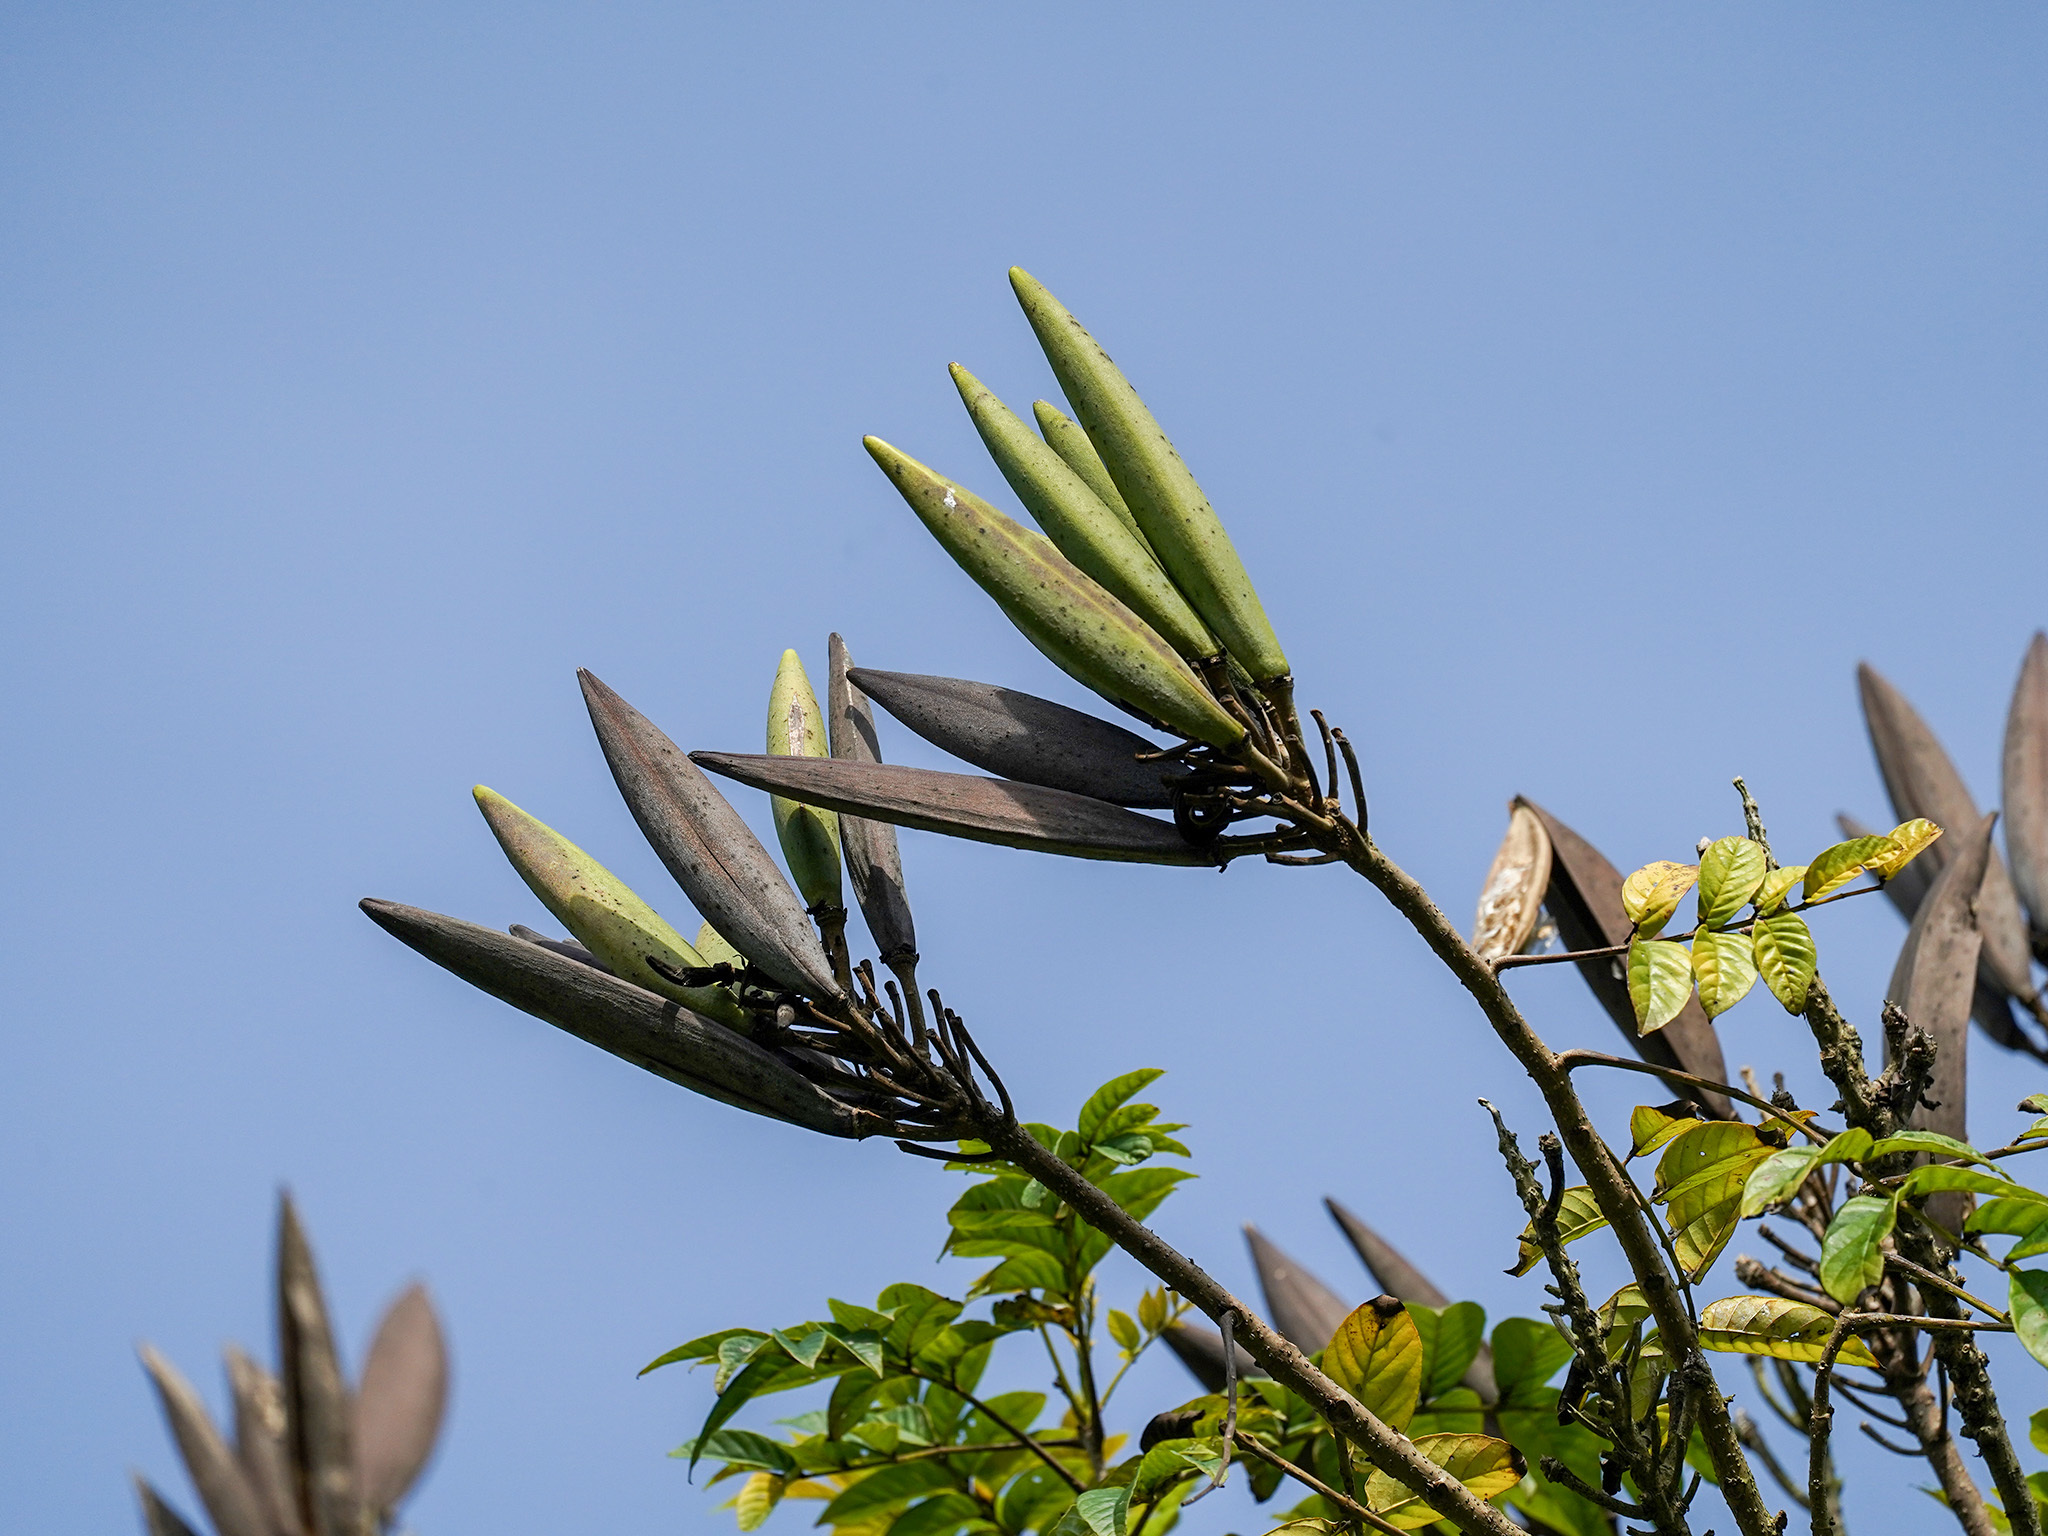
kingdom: Plantae
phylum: Tracheophyta
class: Magnoliopsida
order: Lamiales
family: Bignoniaceae
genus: Spathodea
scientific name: Spathodea campanulata
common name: African tuliptree
